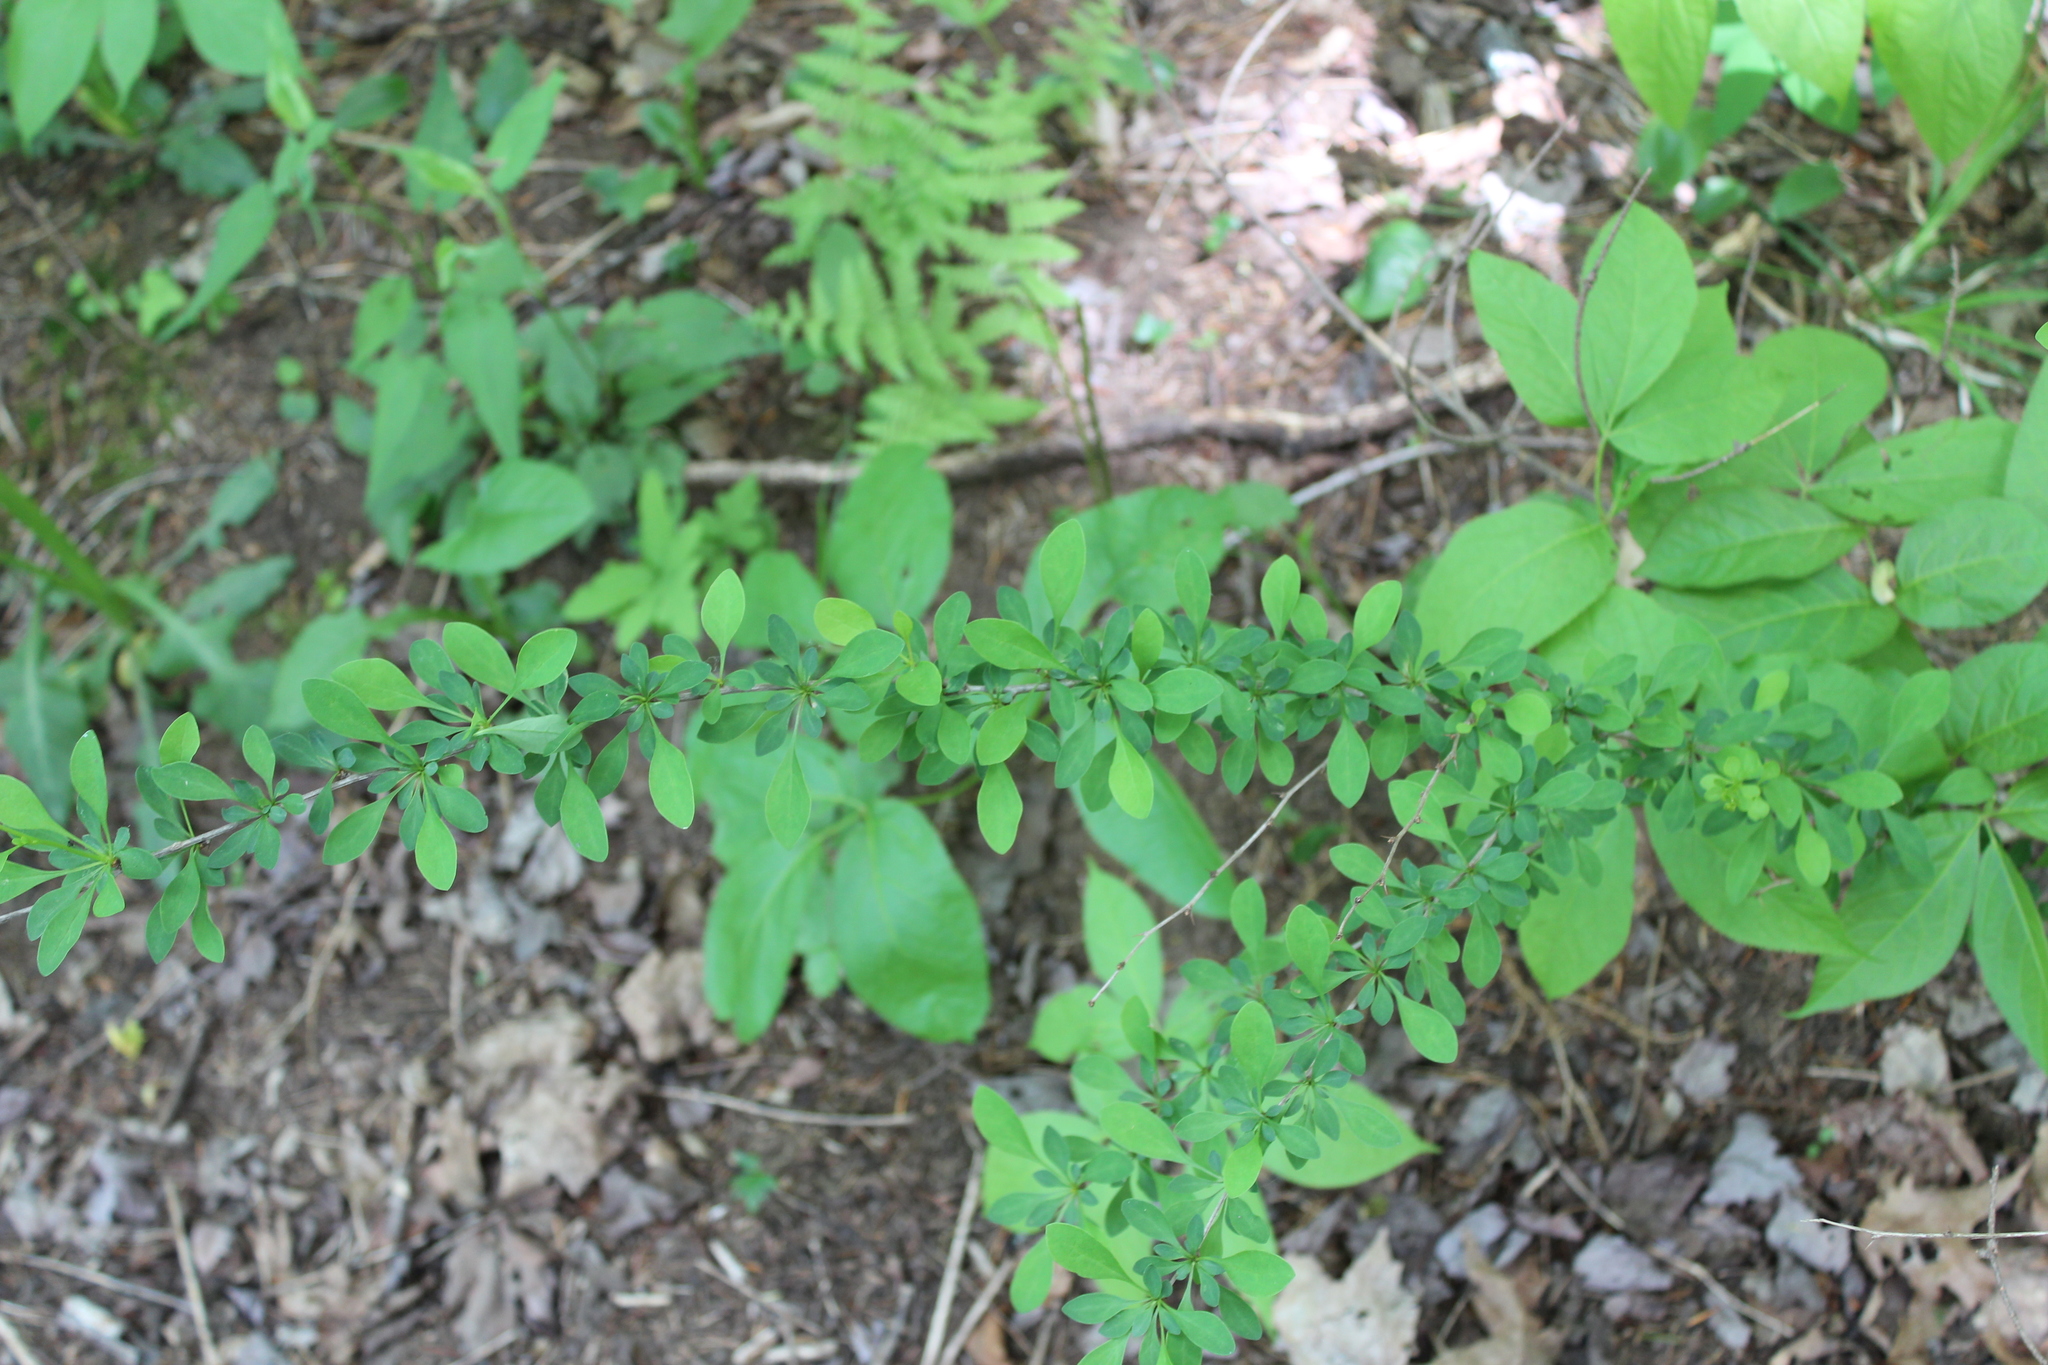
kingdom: Plantae
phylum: Tracheophyta
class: Magnoliopsida
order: Ranunculales
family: Berberidaceae
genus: Berberis
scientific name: Berberis thunbergii
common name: Japanese barberry
